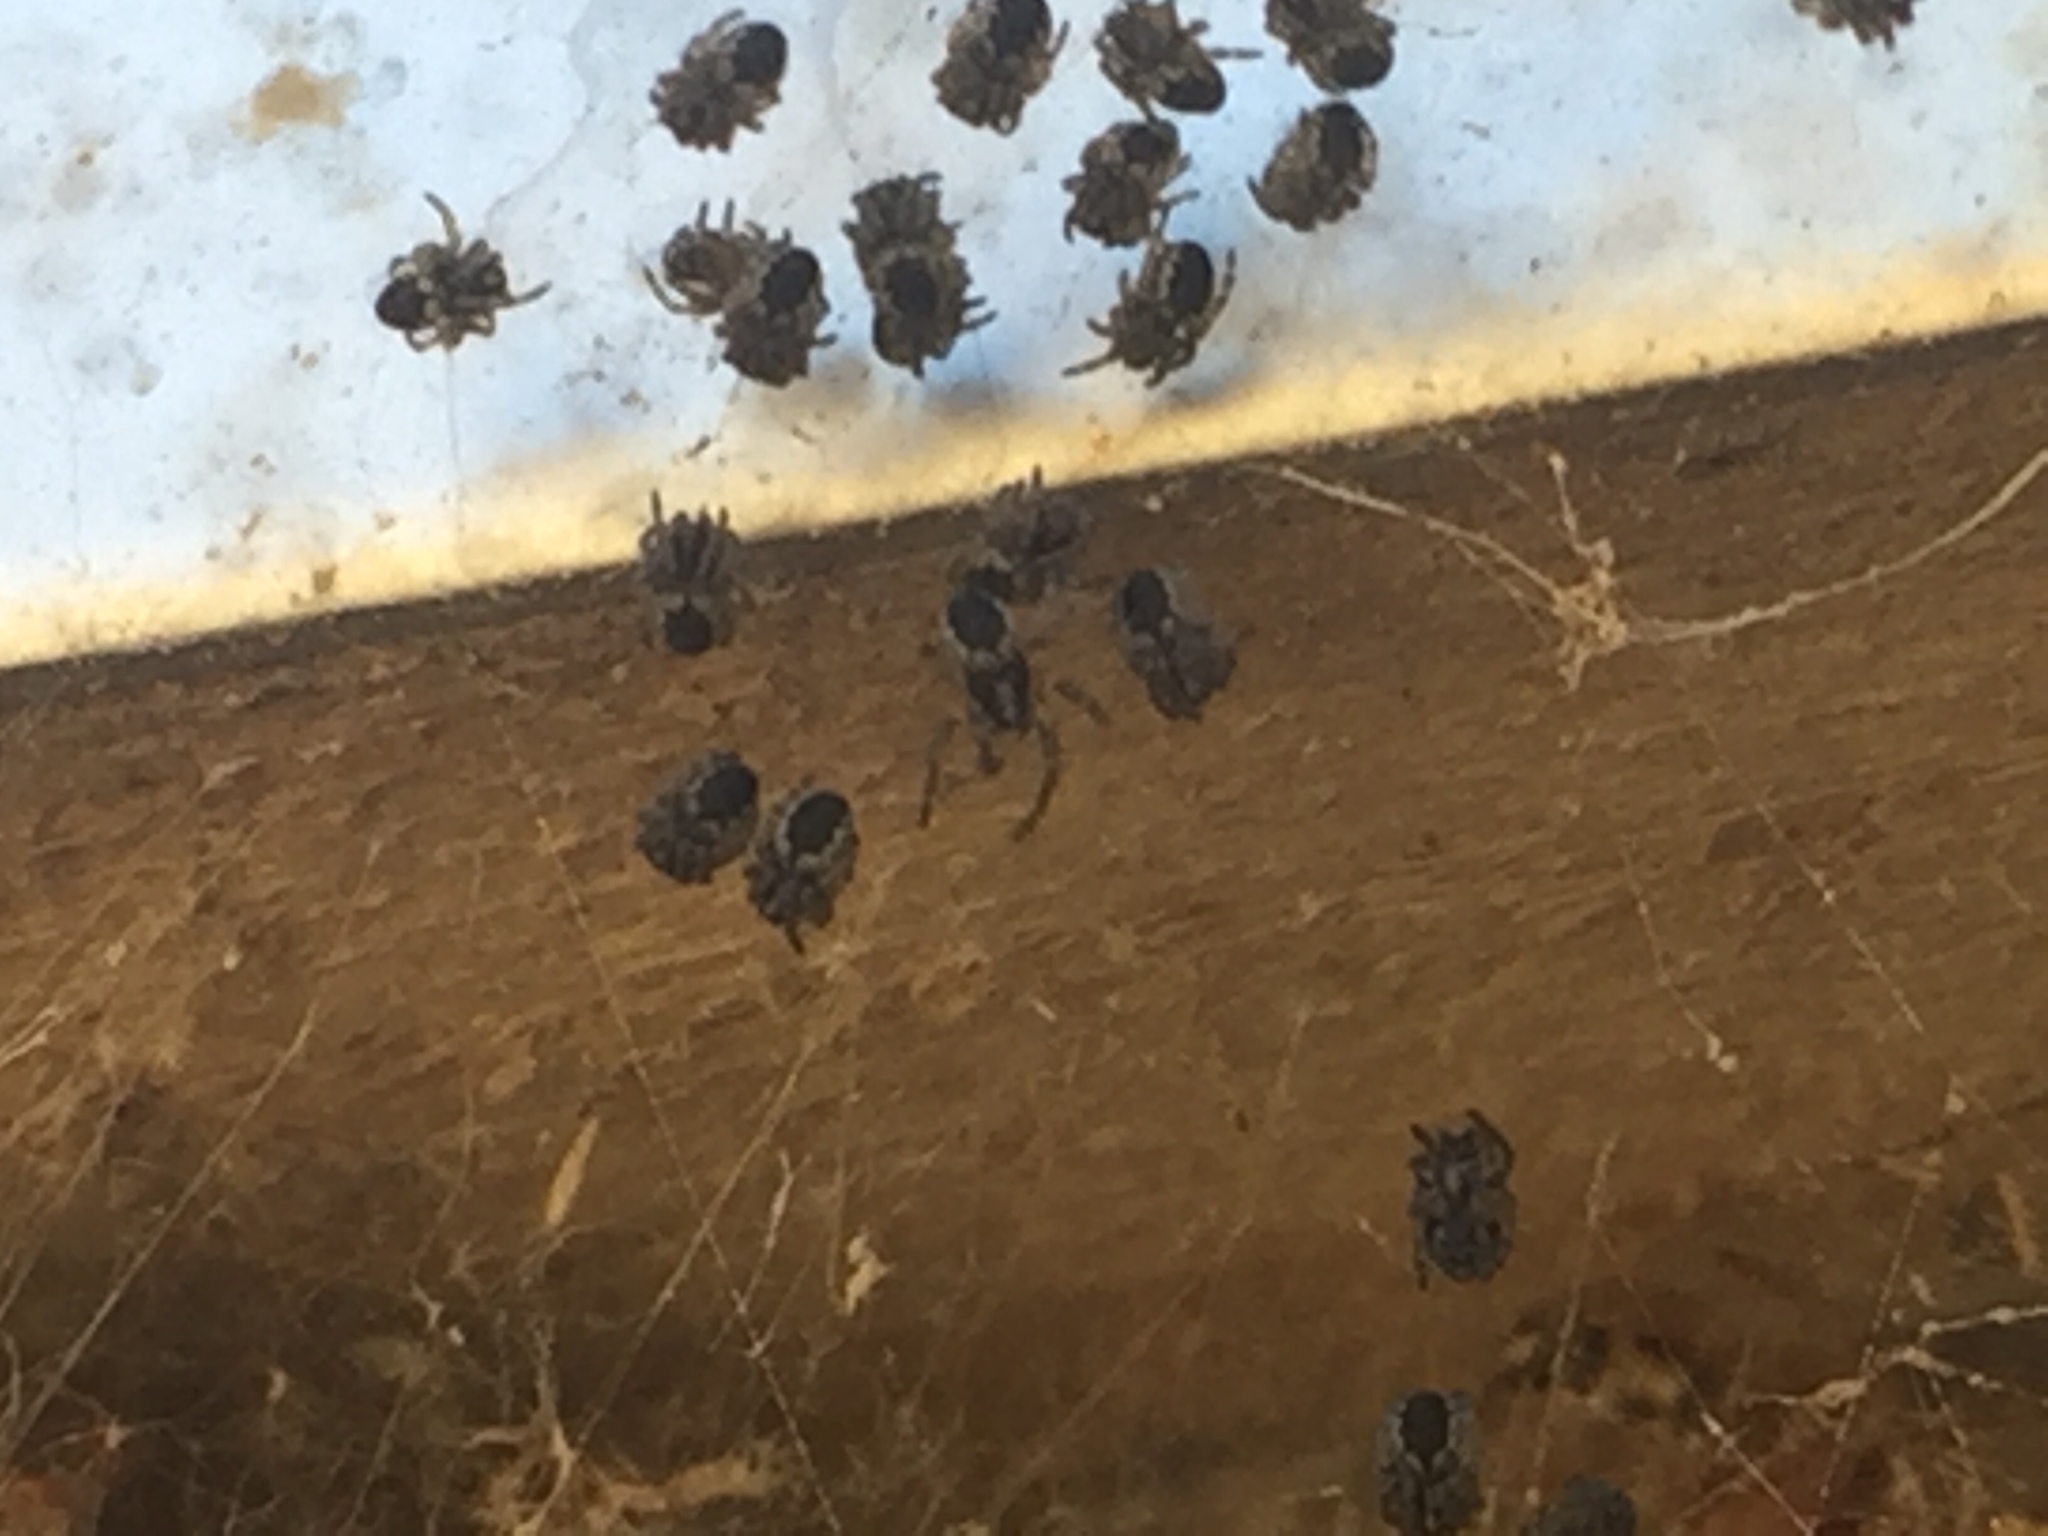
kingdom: Animalia
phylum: Arthropoda
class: Arachnida
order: Araneae
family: Theridiidae
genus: Cryptachaea
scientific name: Cryptachaea veruculata
